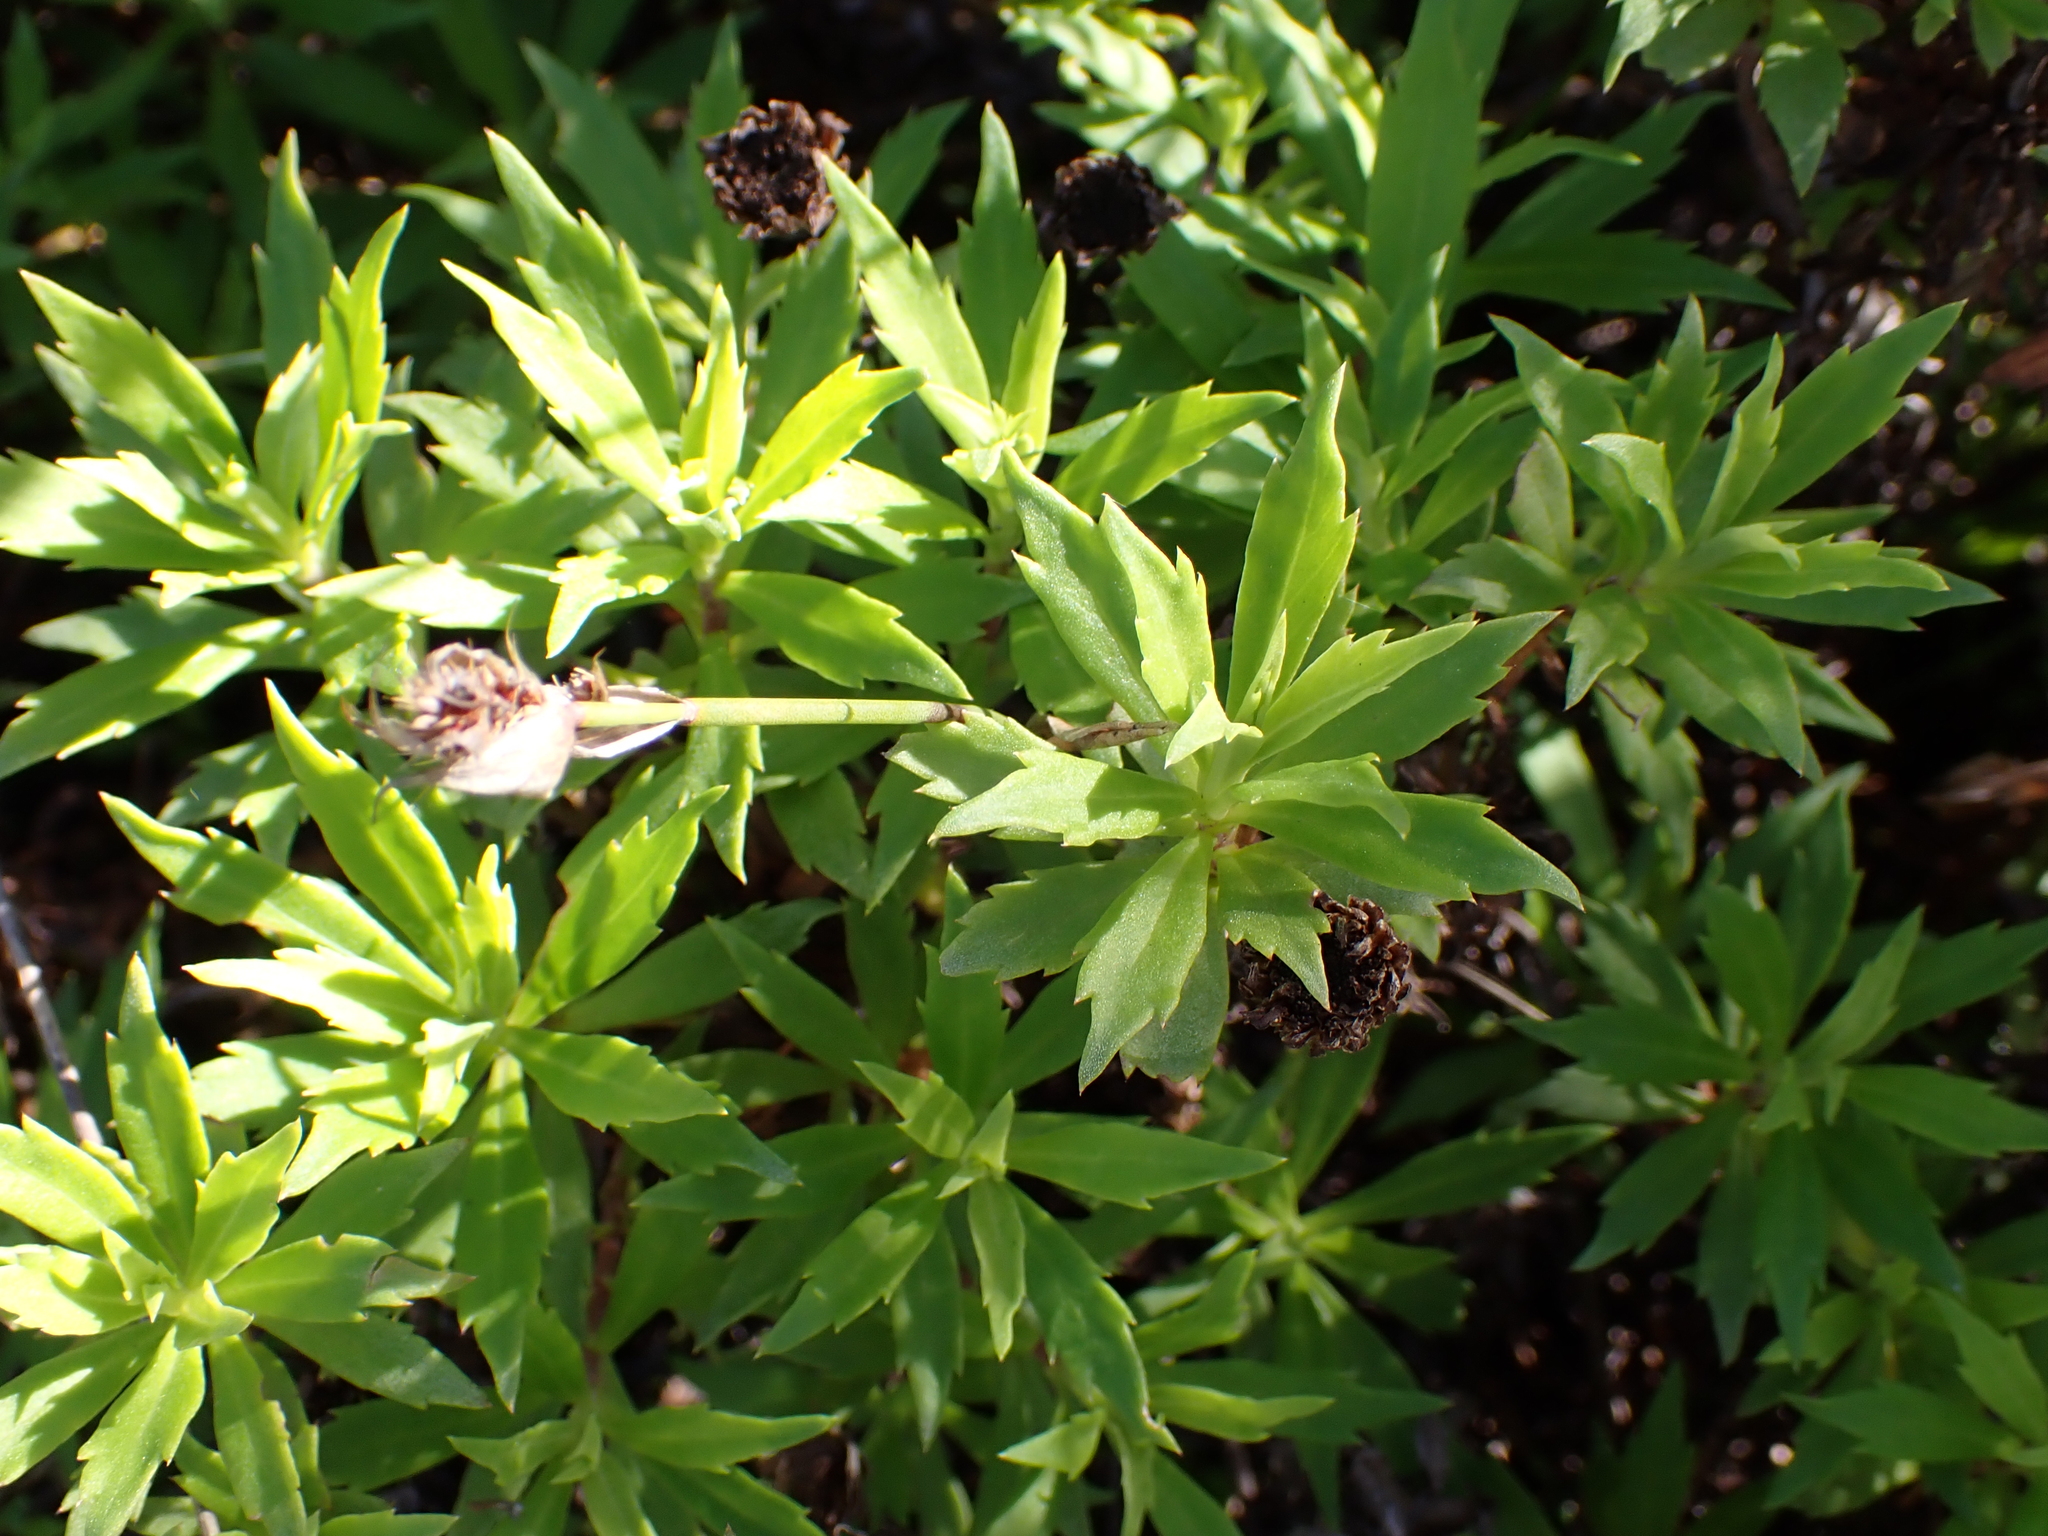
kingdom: Plantae
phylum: Tracheophyta
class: Magnoliopsida
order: Asterales
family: Asteraceae
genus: Osmitopsis
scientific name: Osmitopsis osmitoides
